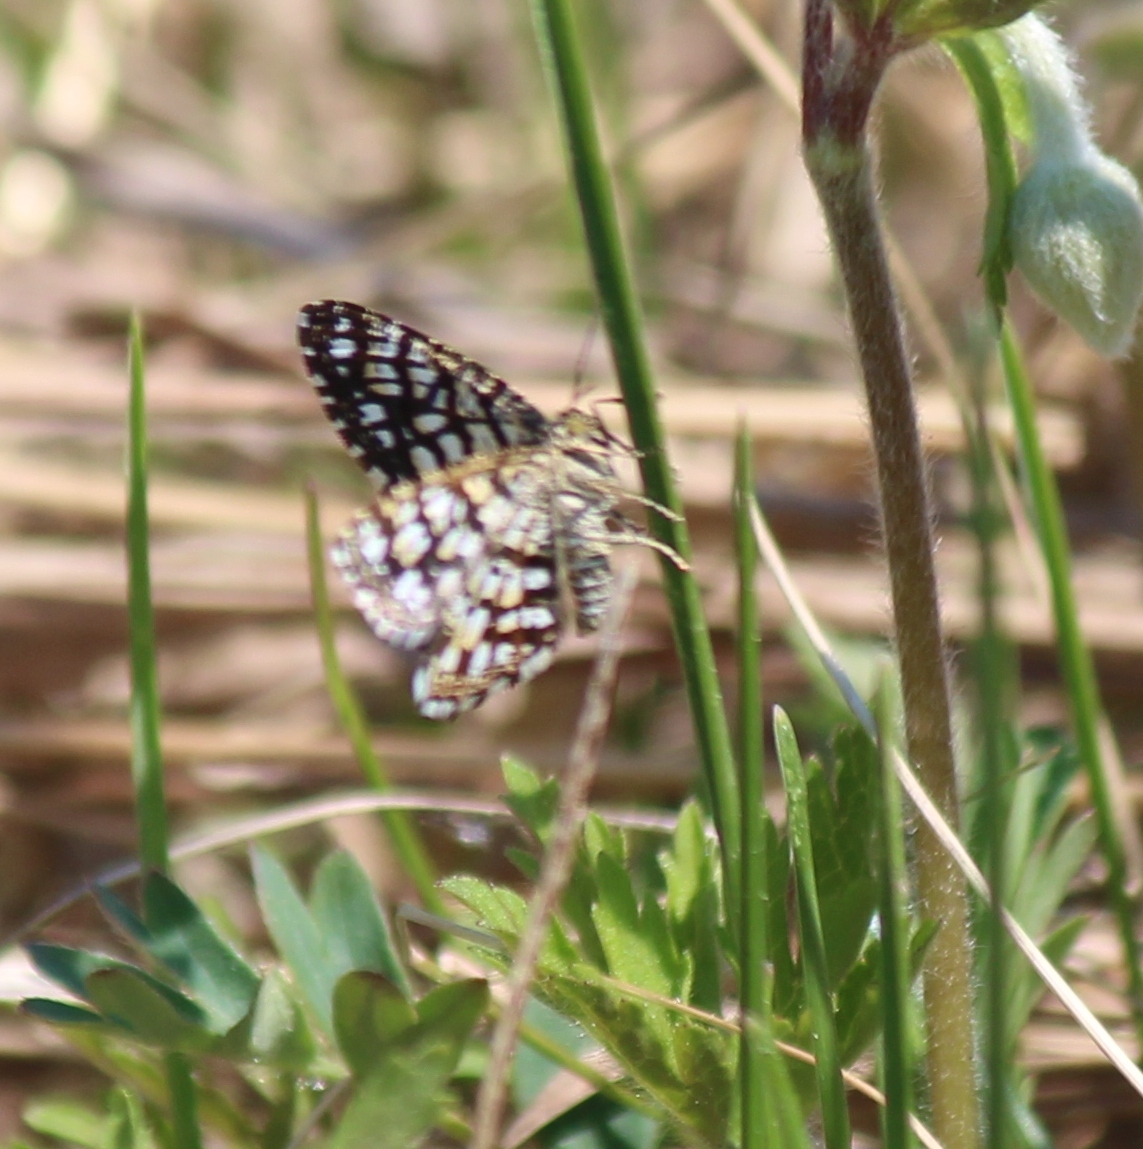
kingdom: Animalia
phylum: Arthropoda
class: Insecta
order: Lepidoptera
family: Geometridae
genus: Chiasmia
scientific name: Chiasmia clathrata
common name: Latticed heath
